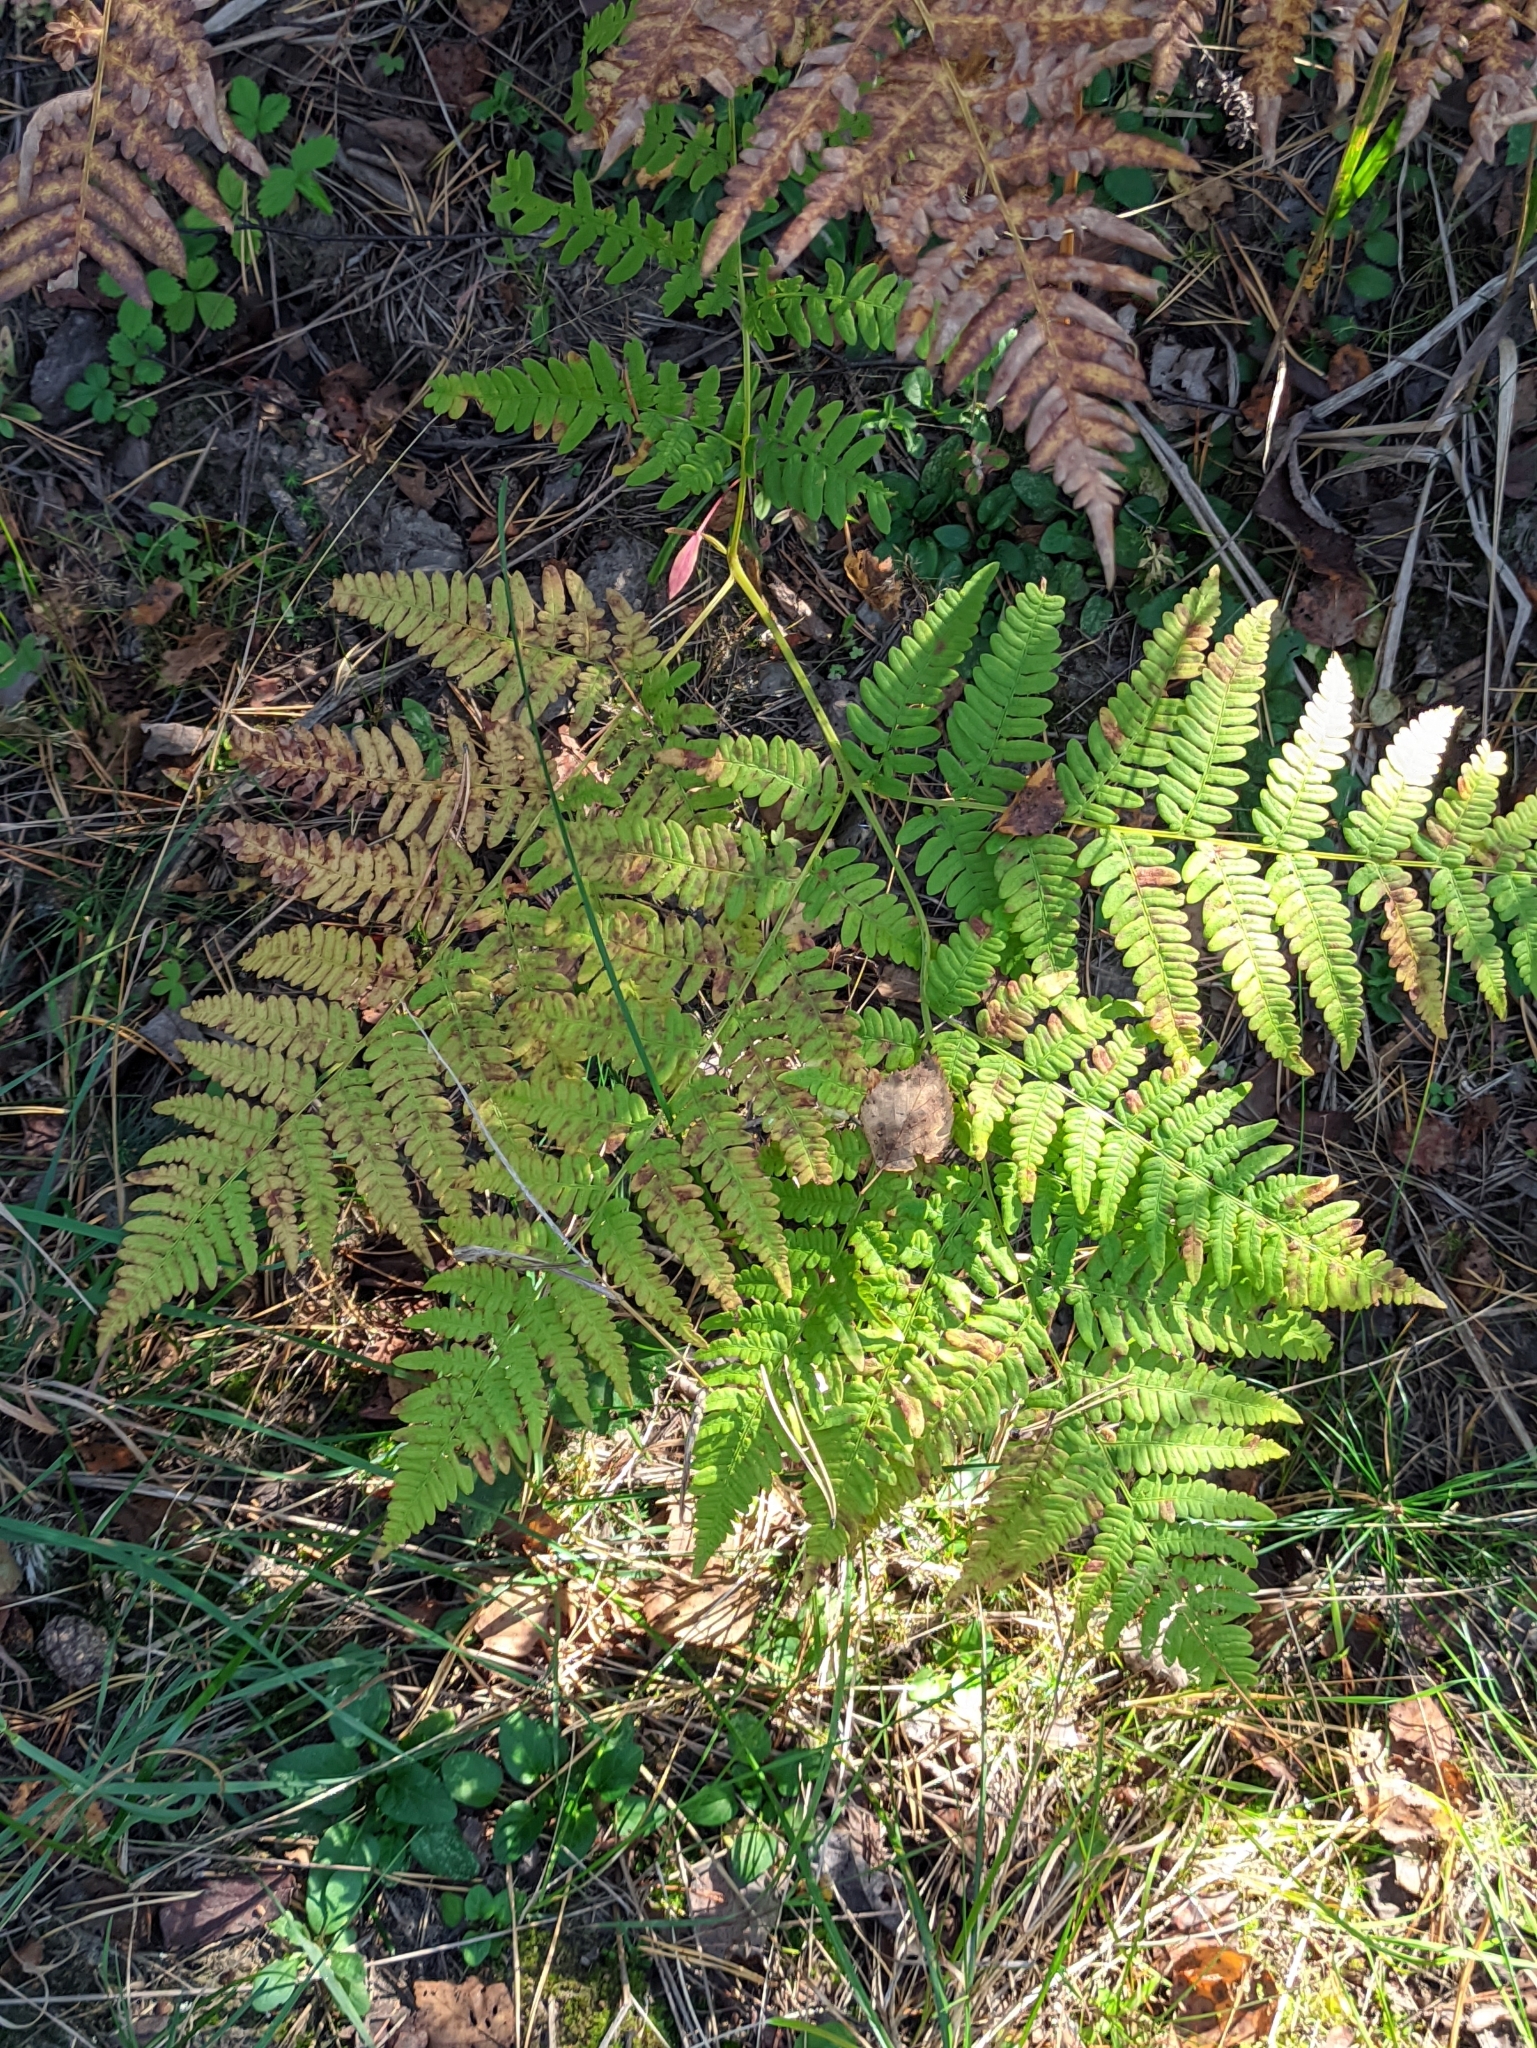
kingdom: Plantae
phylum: Tracheophyta
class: Polypodiopsida
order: Polypodiales
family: Dennstaedtiaceae
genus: Pteridium
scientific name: Pteridium aquilinum
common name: Bracken
